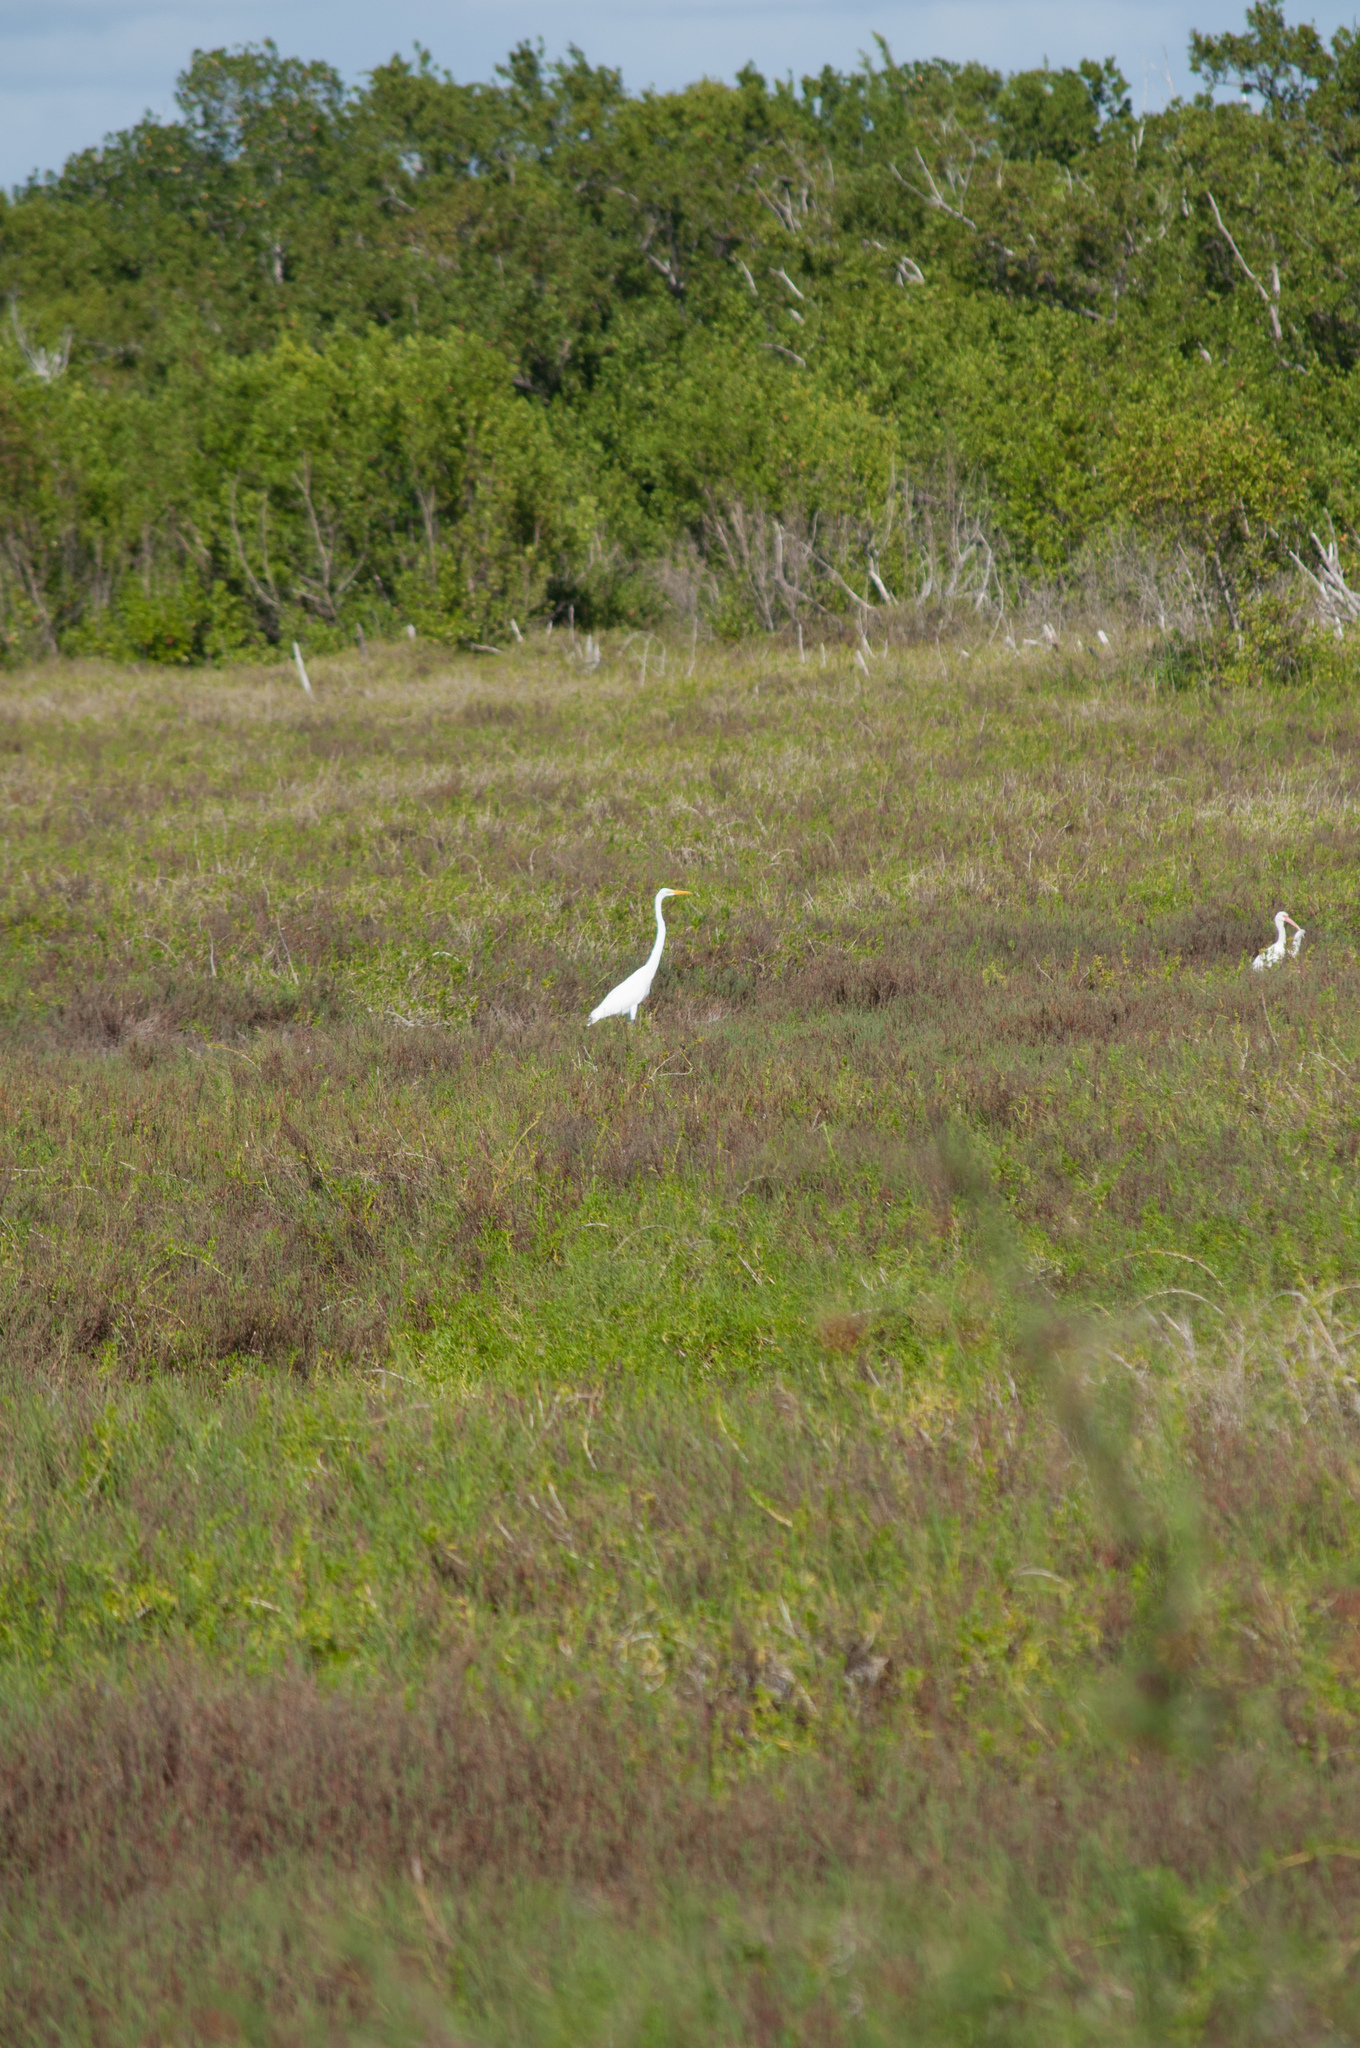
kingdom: Animalia
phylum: Chordata
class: Aves
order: Pelecaniformes
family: Ardeidae
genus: Ardea
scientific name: Ardea alba
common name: Great egret
